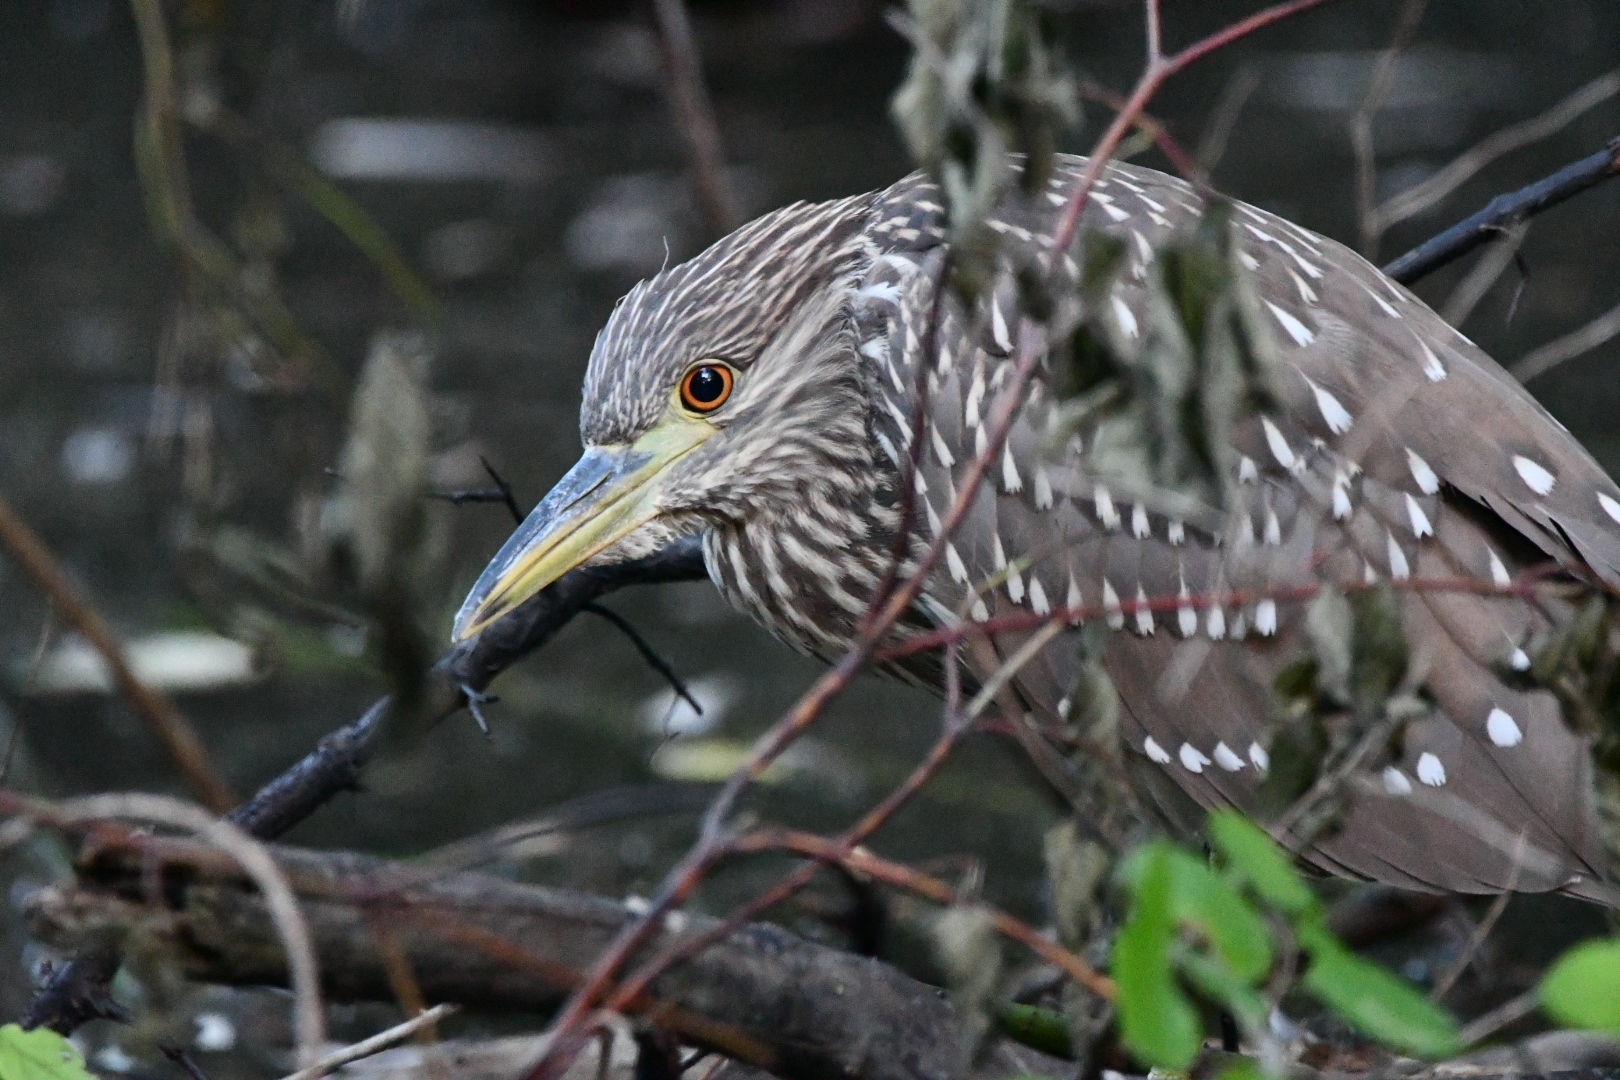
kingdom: Animalia
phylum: Chordata
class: Aves
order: Pelecaniformes
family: Ardeidae
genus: Nycticorax
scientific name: Nycticorax nycticorax
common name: Black-crowned night heron
